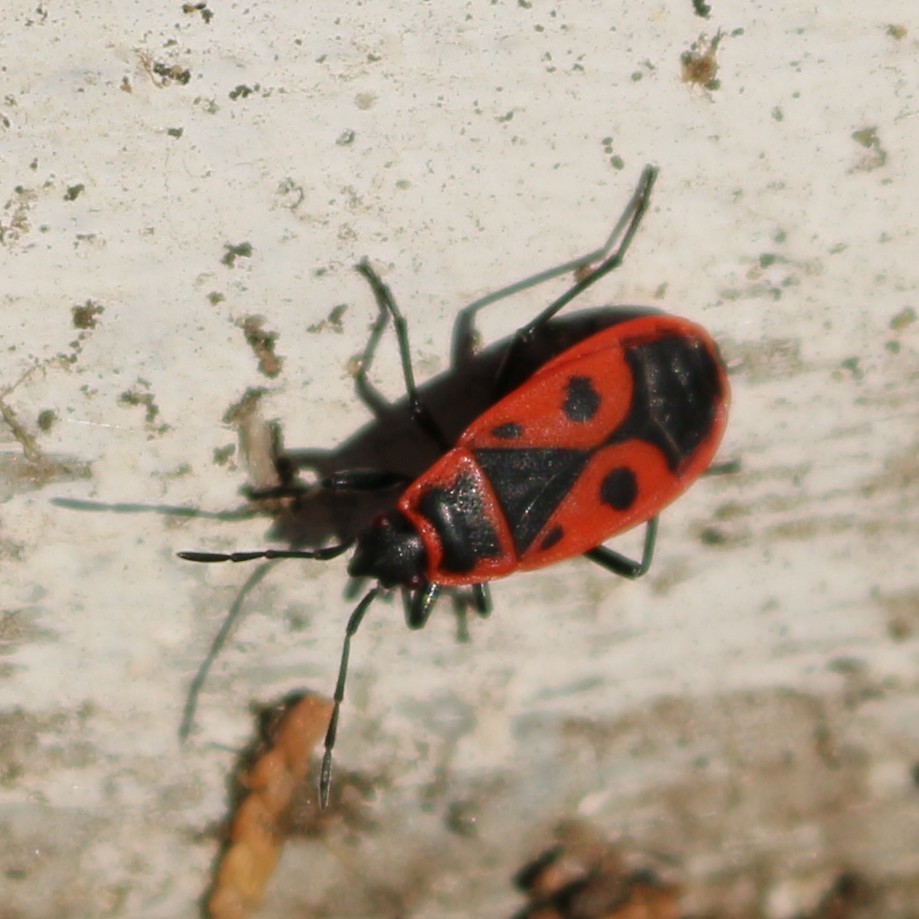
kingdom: Animalia
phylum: Arthropoda
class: Insecta
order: Hemiptera
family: Pyrrhocoridae
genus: Pyrrhocoris
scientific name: Pyrrhocoris apterus
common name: Firebug
